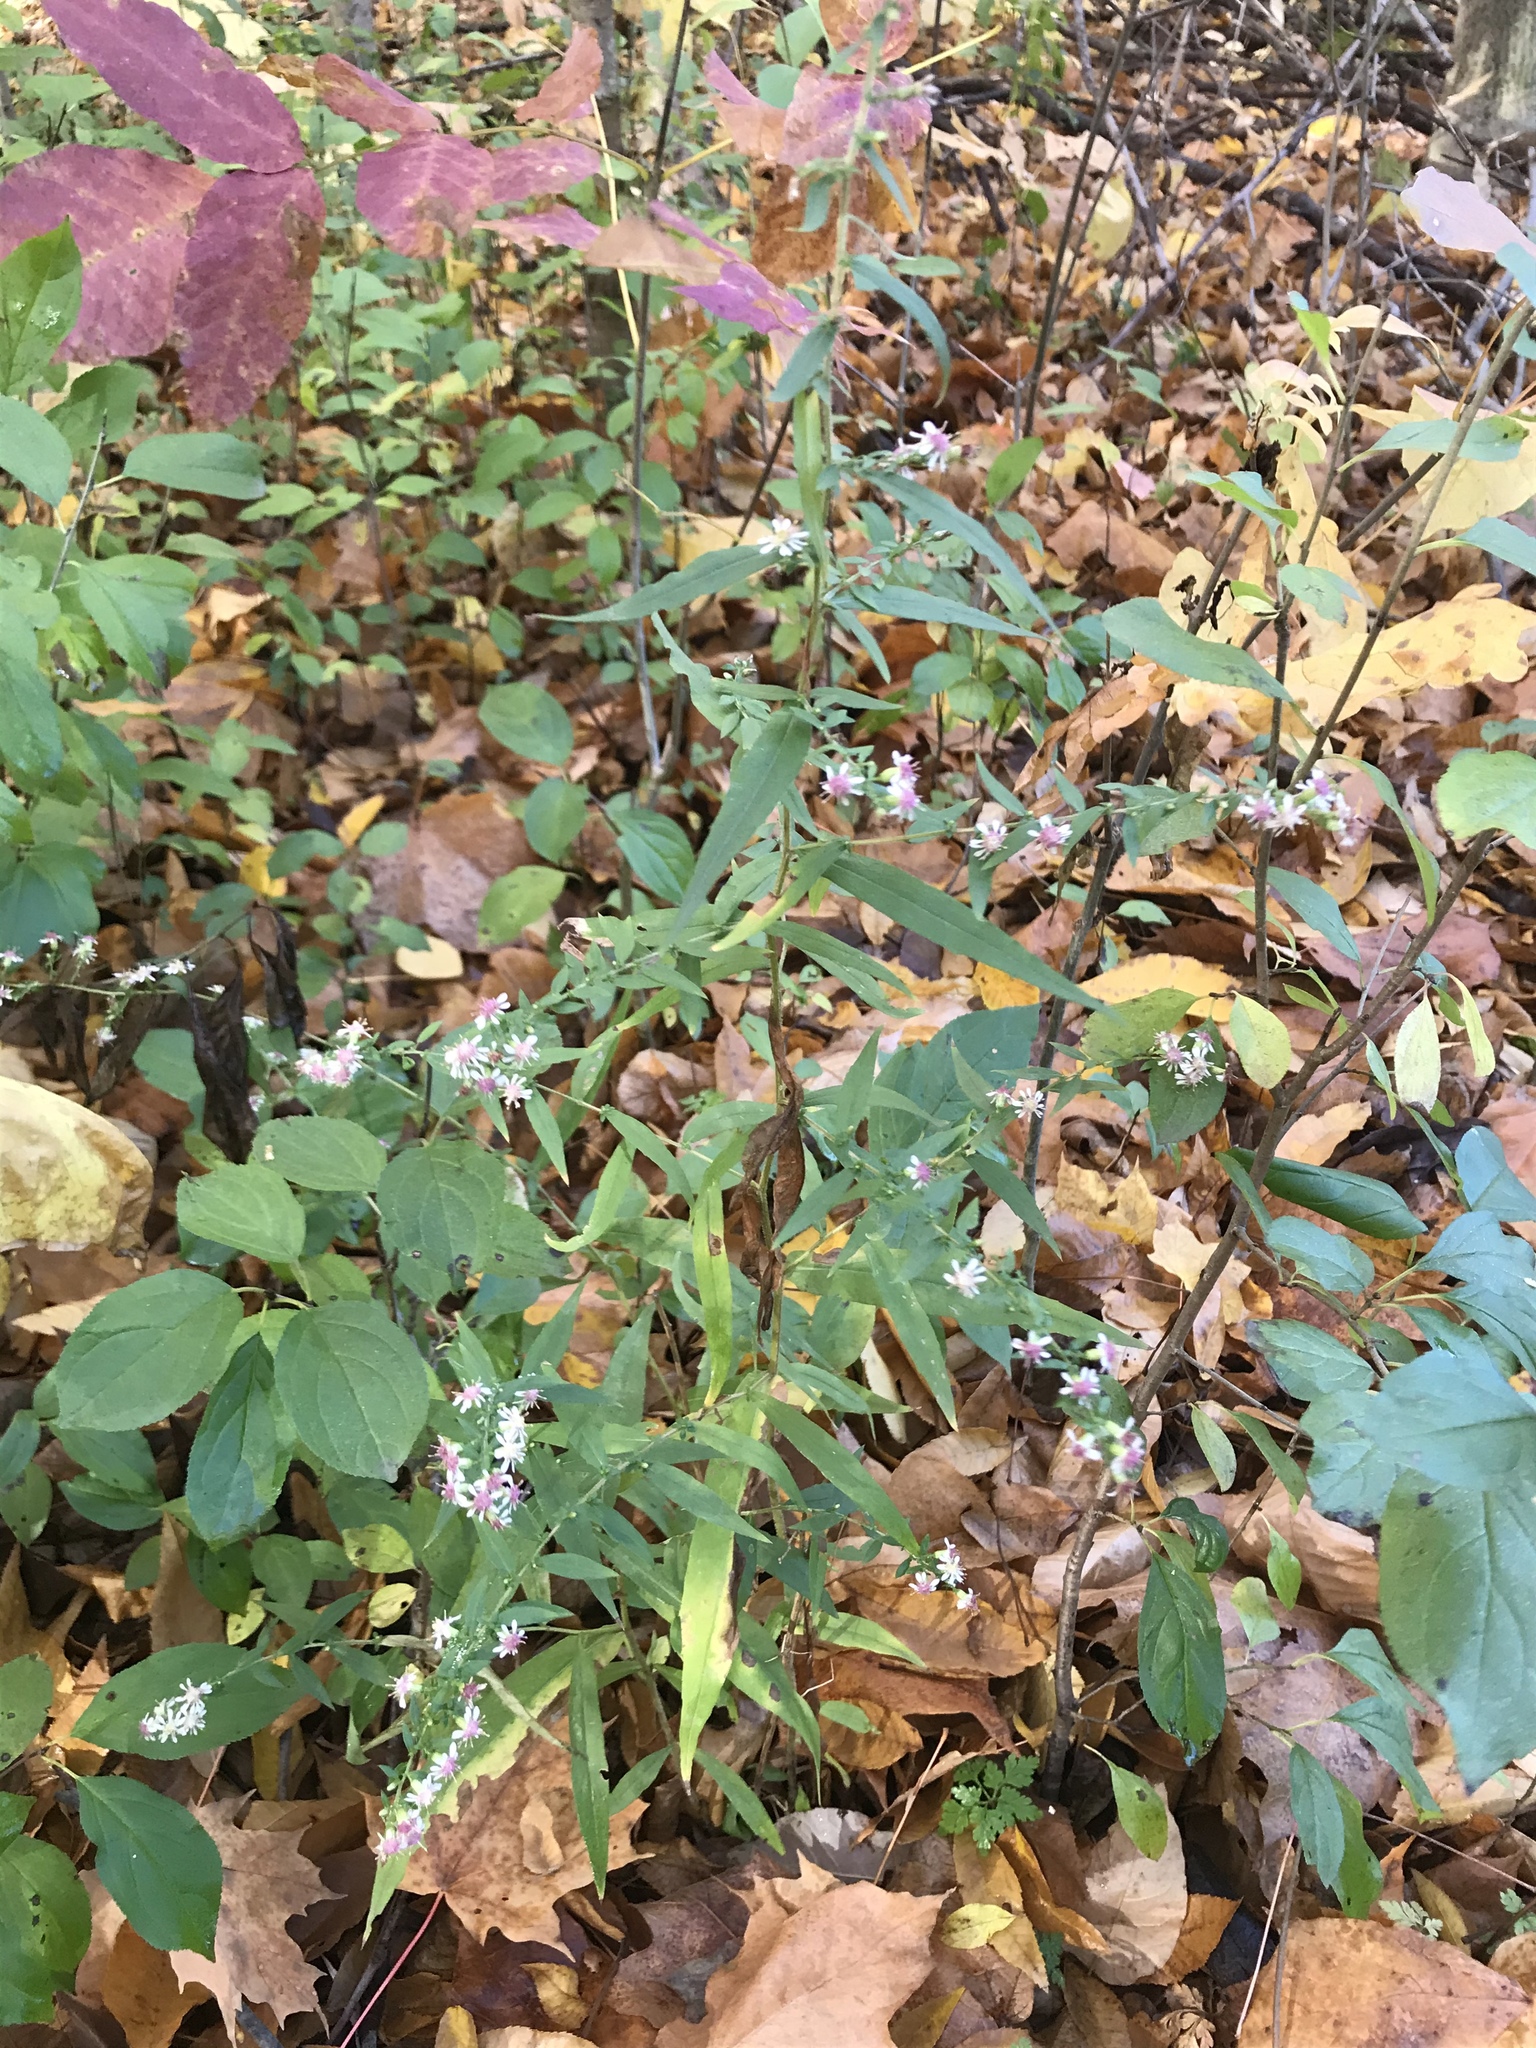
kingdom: Plantae
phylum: Tracheophyta
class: Magnoliopsida
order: Asterales
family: Asteraceae
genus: Symphyotrichum
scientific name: Symphyotrichum lateriflorum
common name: Calico aster
